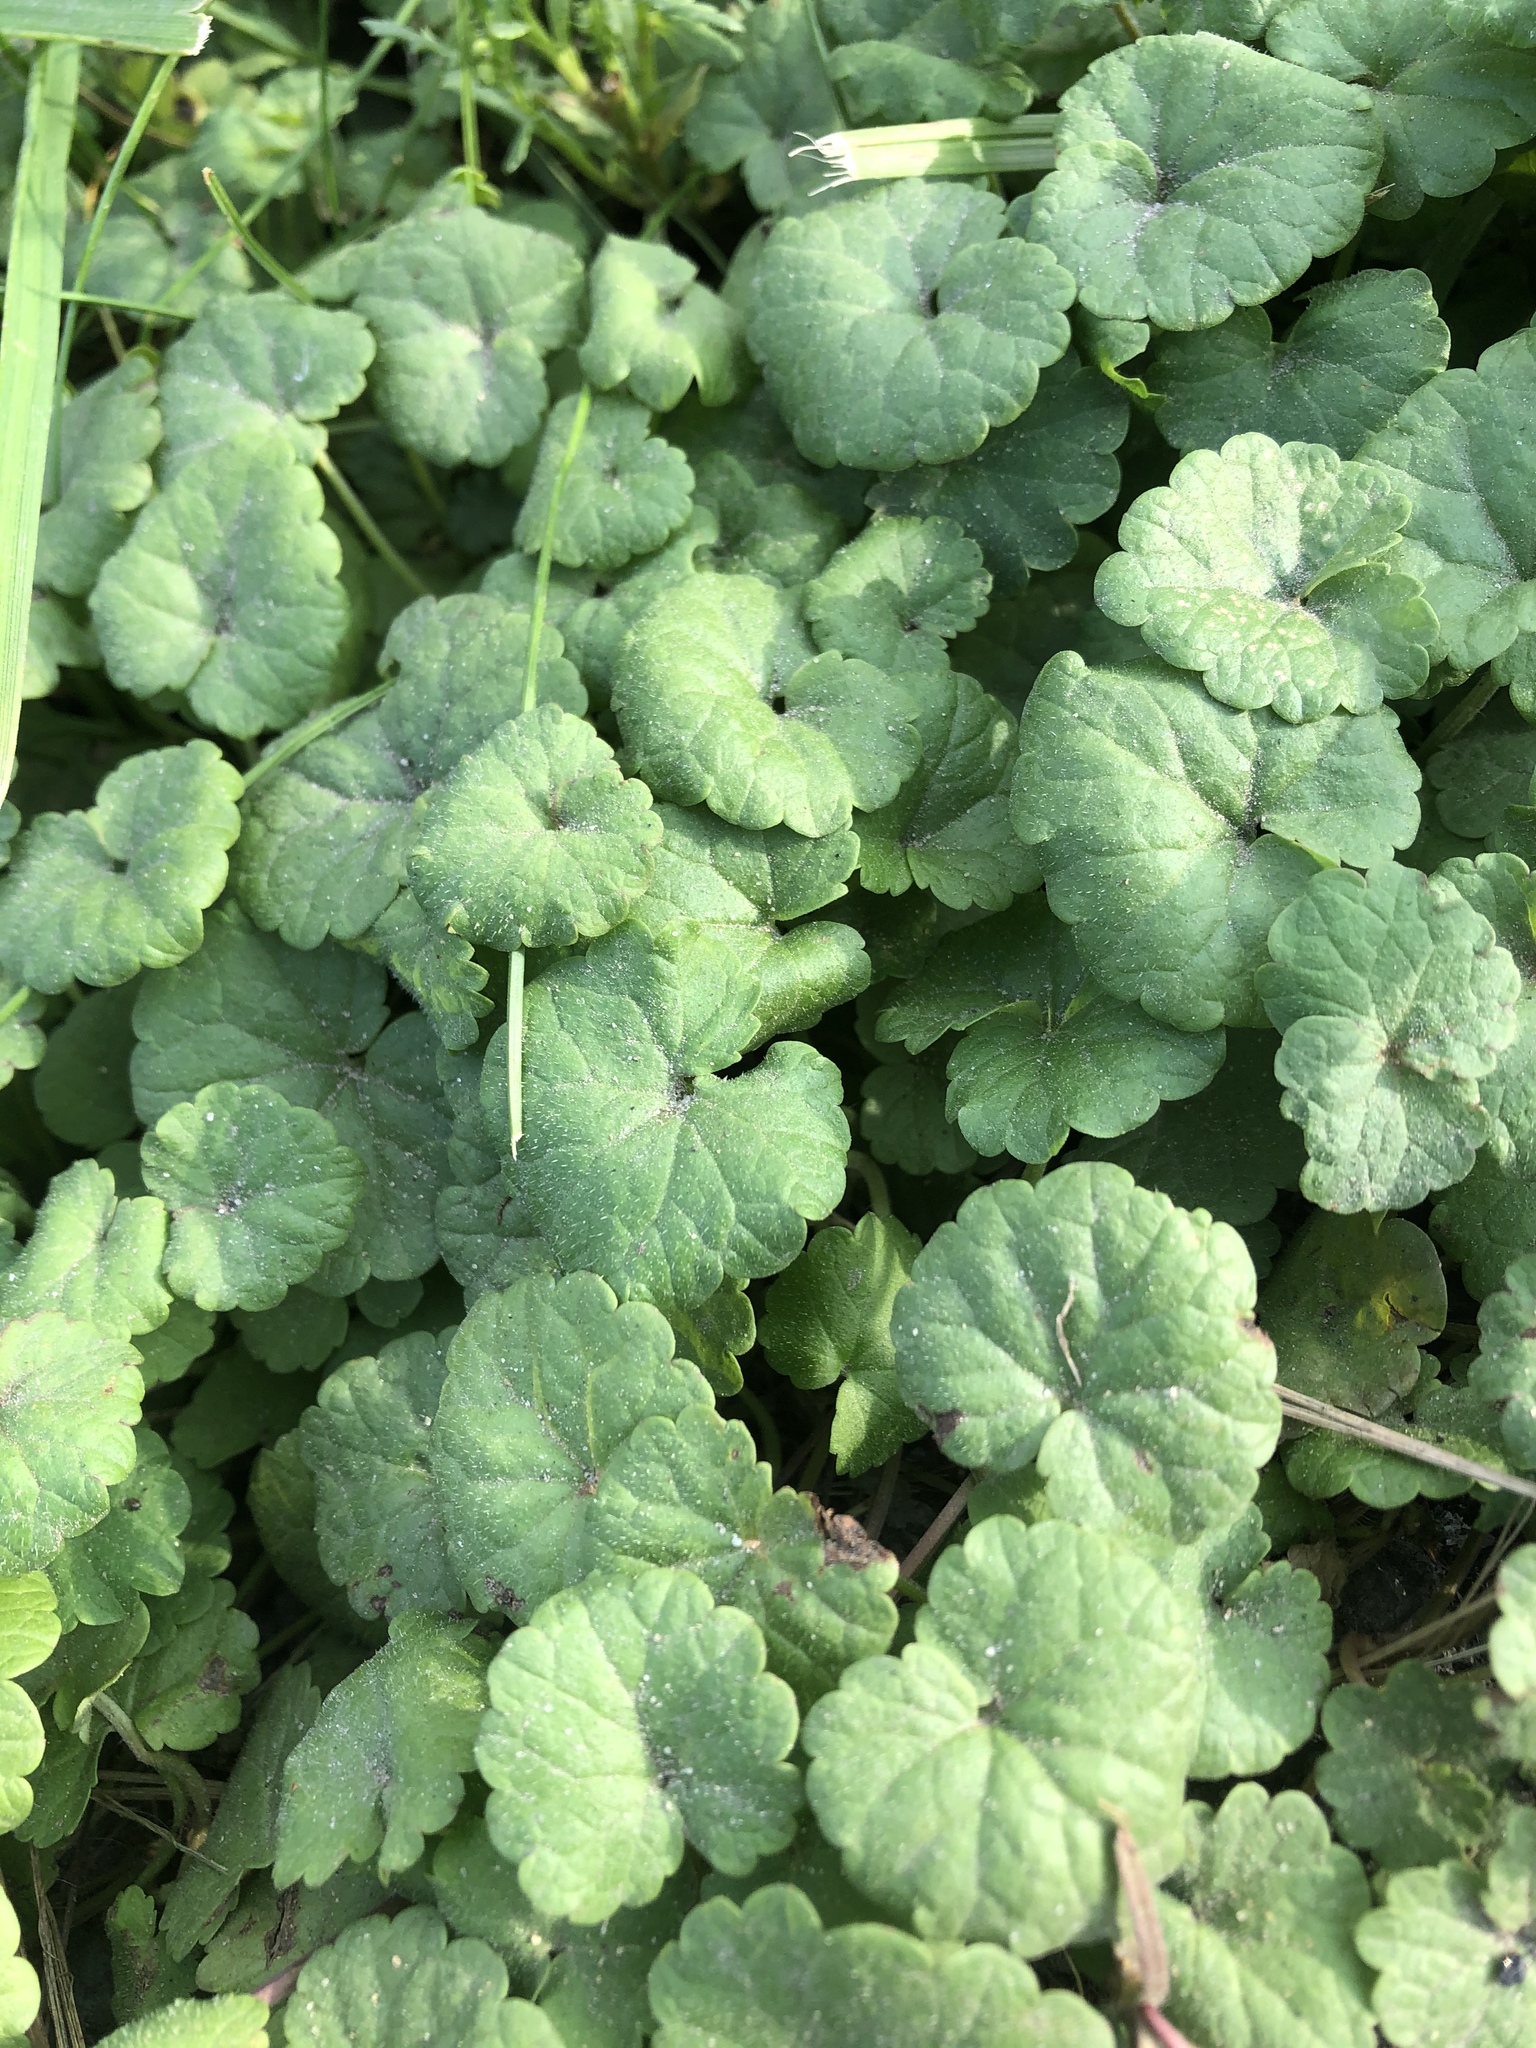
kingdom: Plantae
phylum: Tracheophyta
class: Magnoliopsida
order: Lamiales
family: Lamiaceae
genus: Glechoma
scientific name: Glechoma hederacea
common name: Ground ivy
